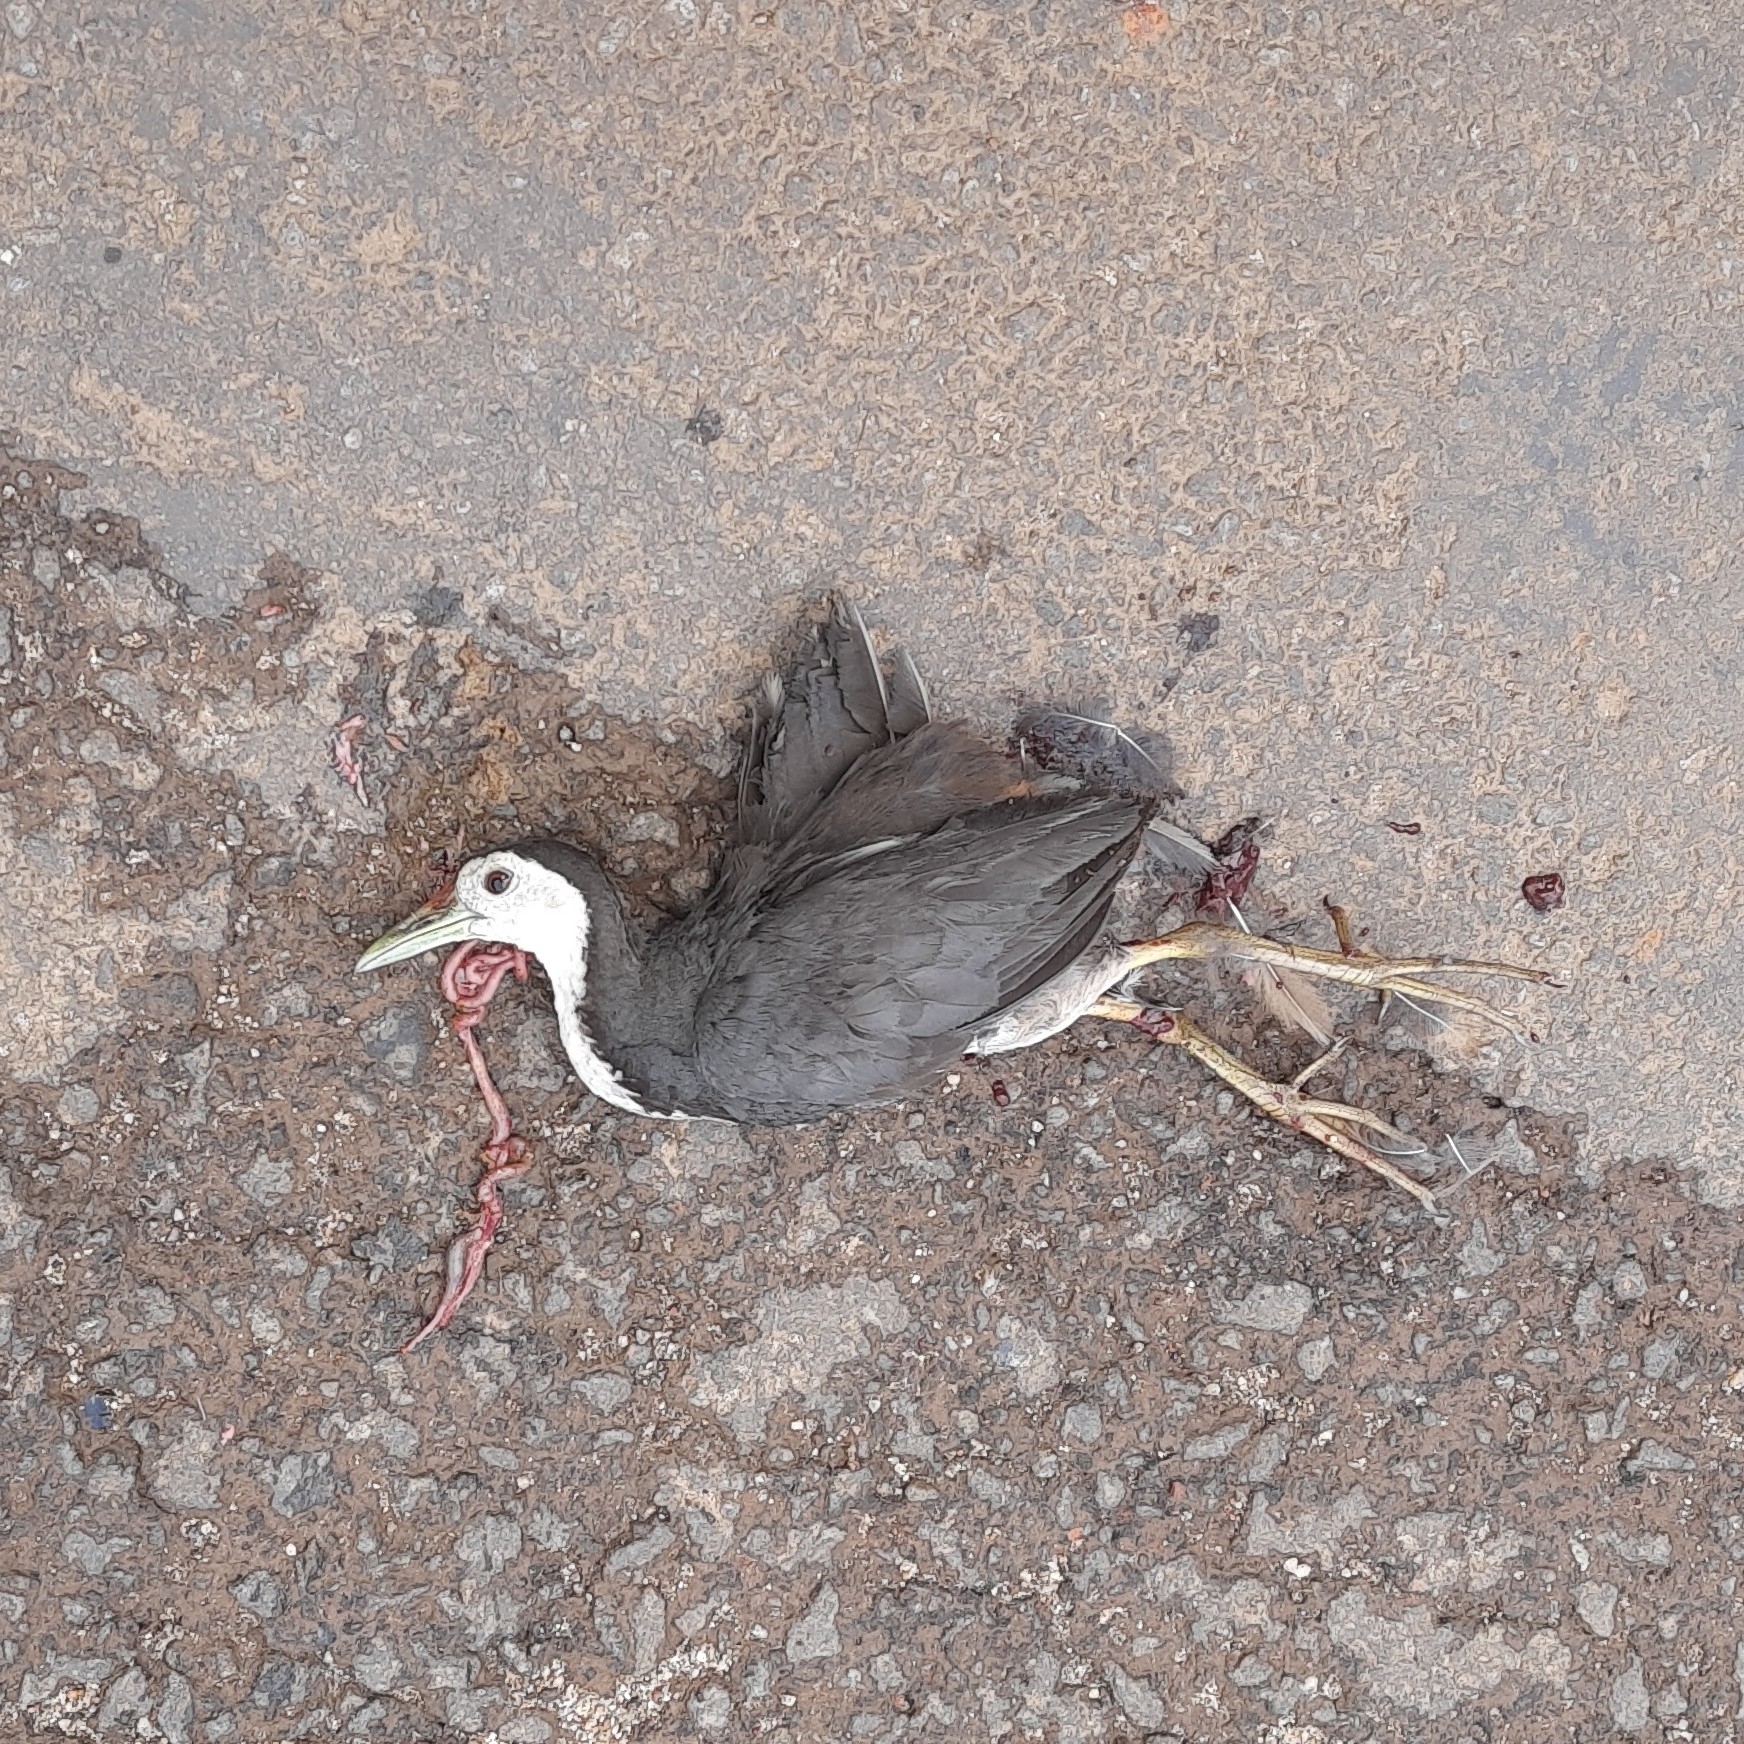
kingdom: Animalia
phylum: Chordata
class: Aves
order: Gruiformes
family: Rallidae
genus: Amaurornis
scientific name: Amaurornis phoenicurus
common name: White-breasted waterhen
